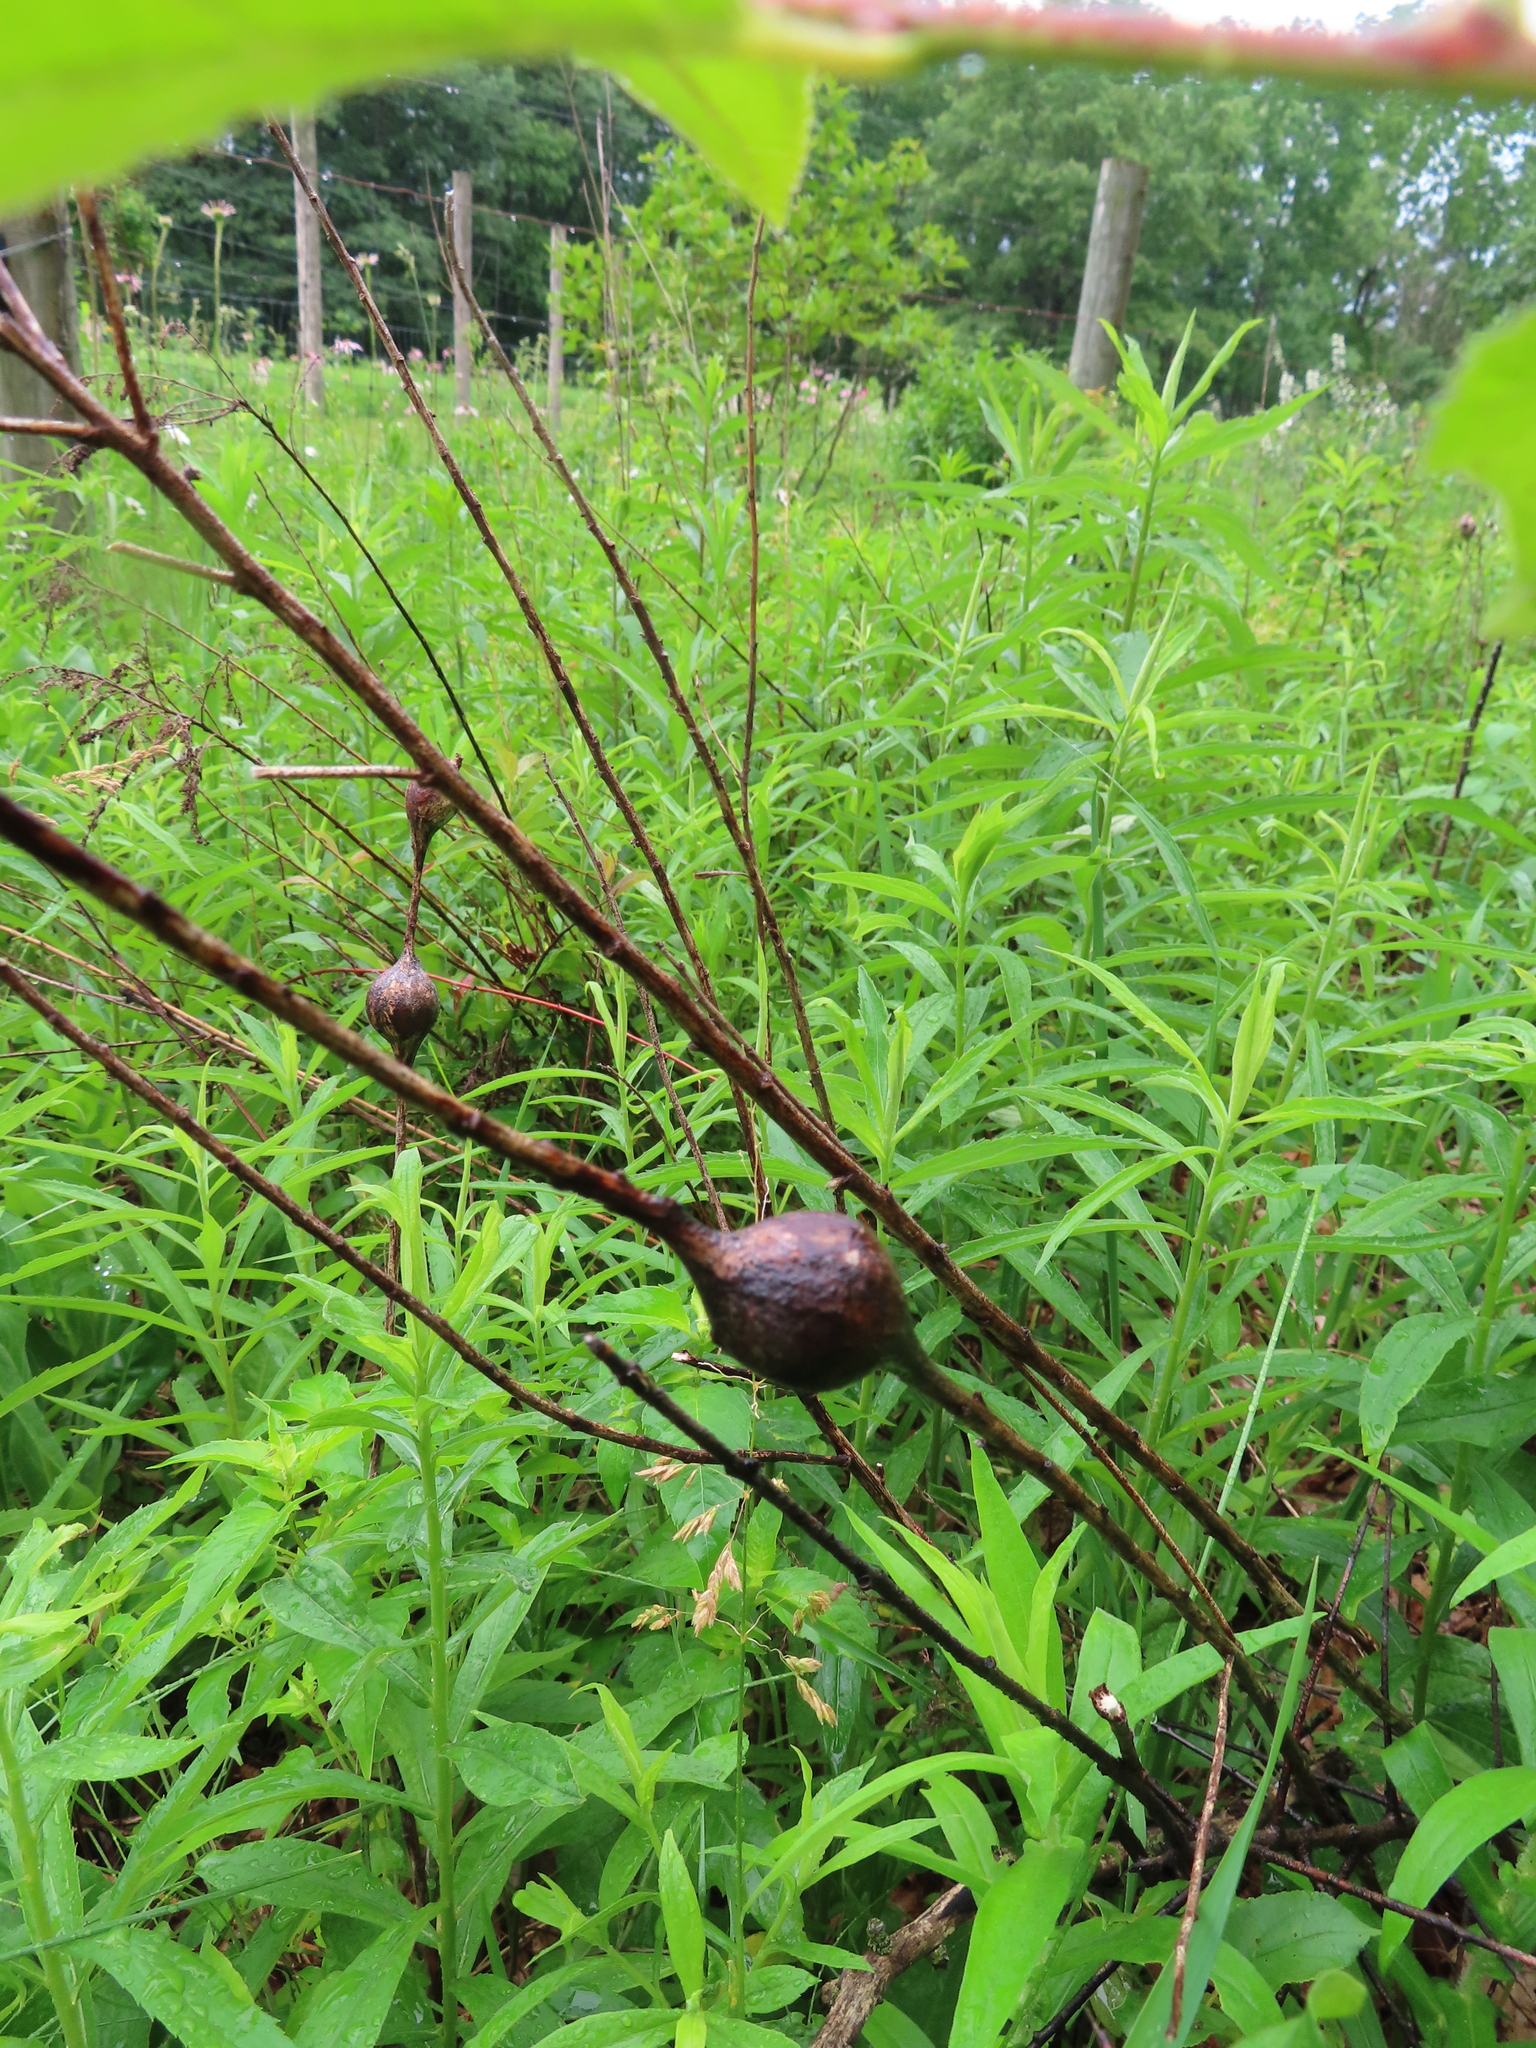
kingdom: Animalia
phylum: Arthropoda
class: Insecta
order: Diptera
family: Tephritidae
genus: Eurosta
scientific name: Eurosta solidaginis
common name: Goldenrod gall fly
